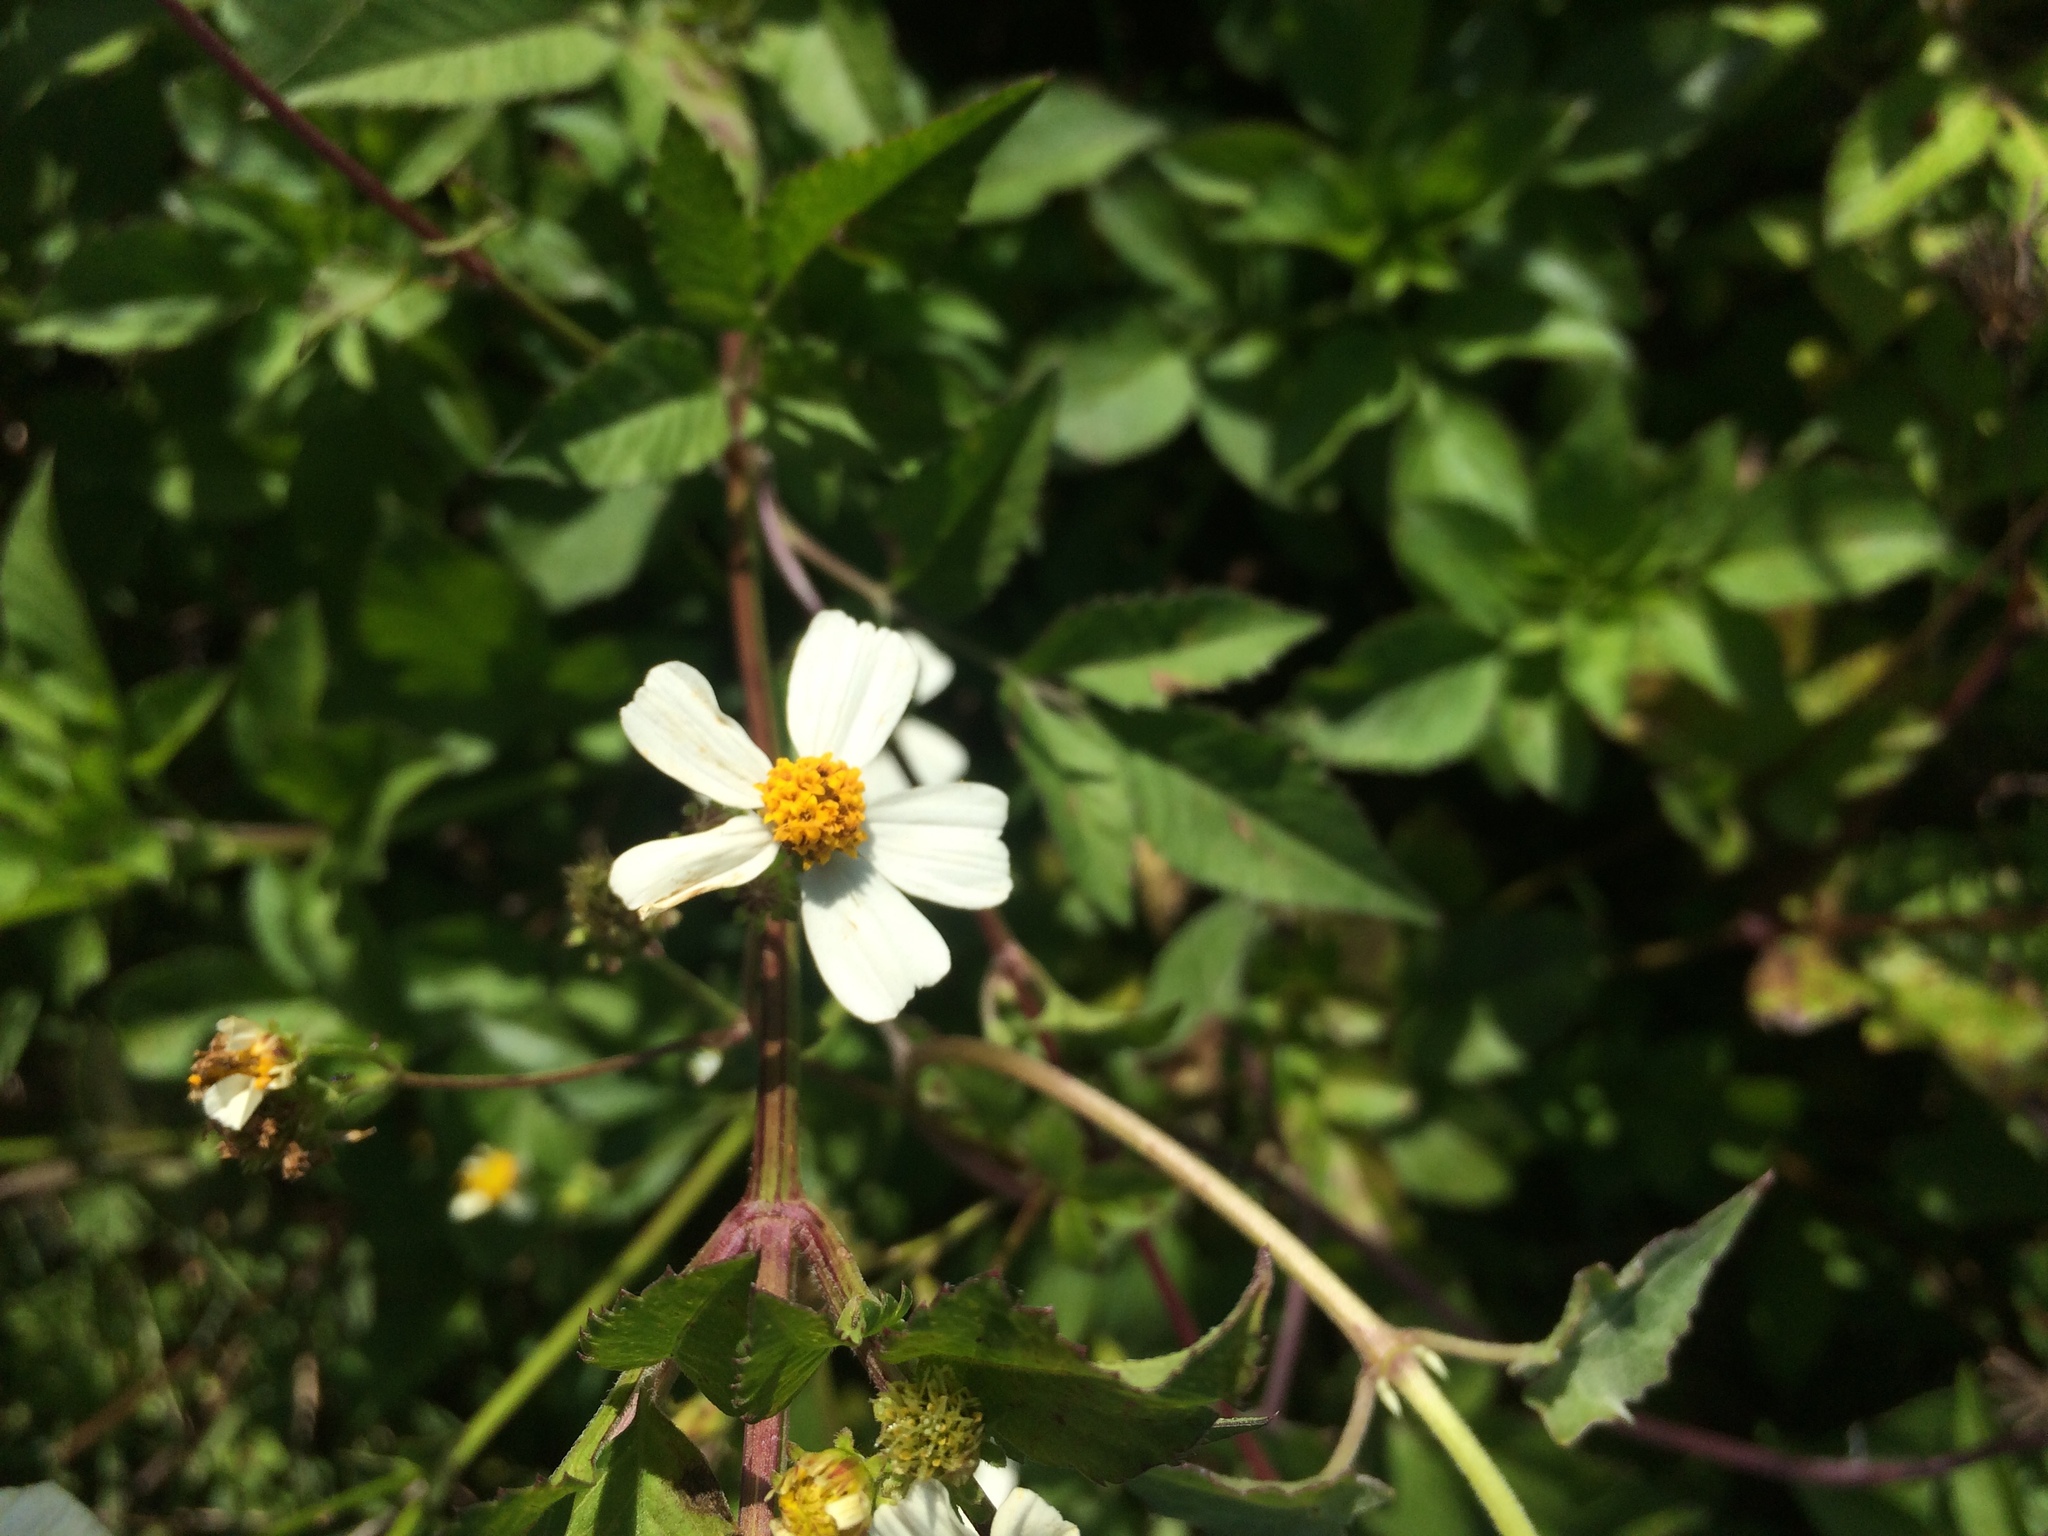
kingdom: Plantae
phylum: Tracheophyta
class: Magnoliopsida
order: Asterales
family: Asteraceae
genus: Bidens
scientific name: Bidens alba
